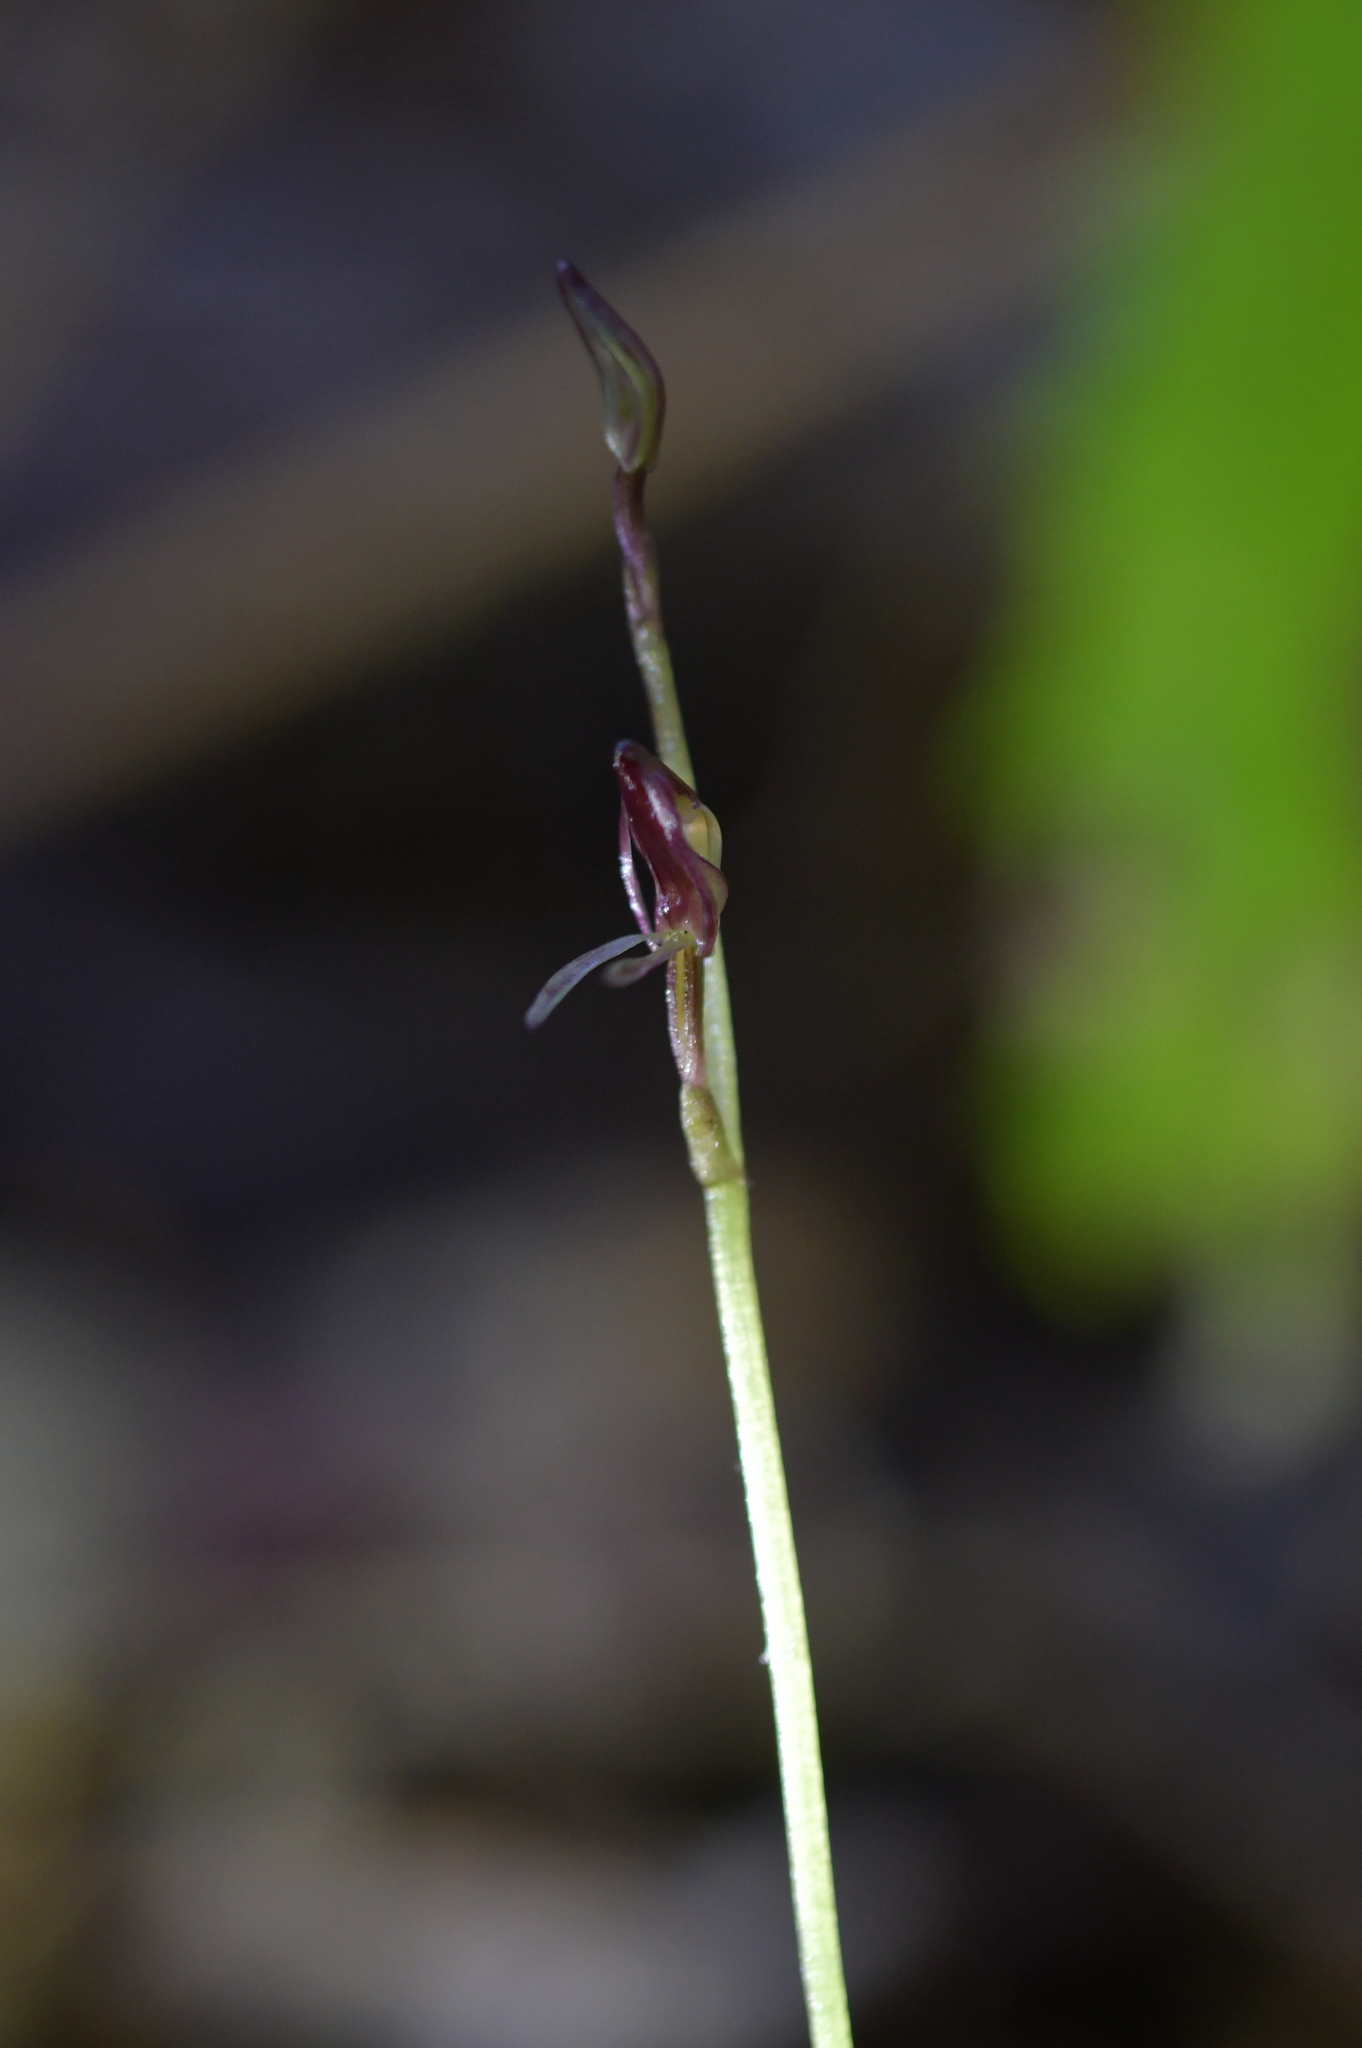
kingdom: Plantae
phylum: Tracheophyta
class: Liliopsida
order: Asparagales
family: Orchidaceae
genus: Cyrtostylis
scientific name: Cyrtostylis rotundifolia
